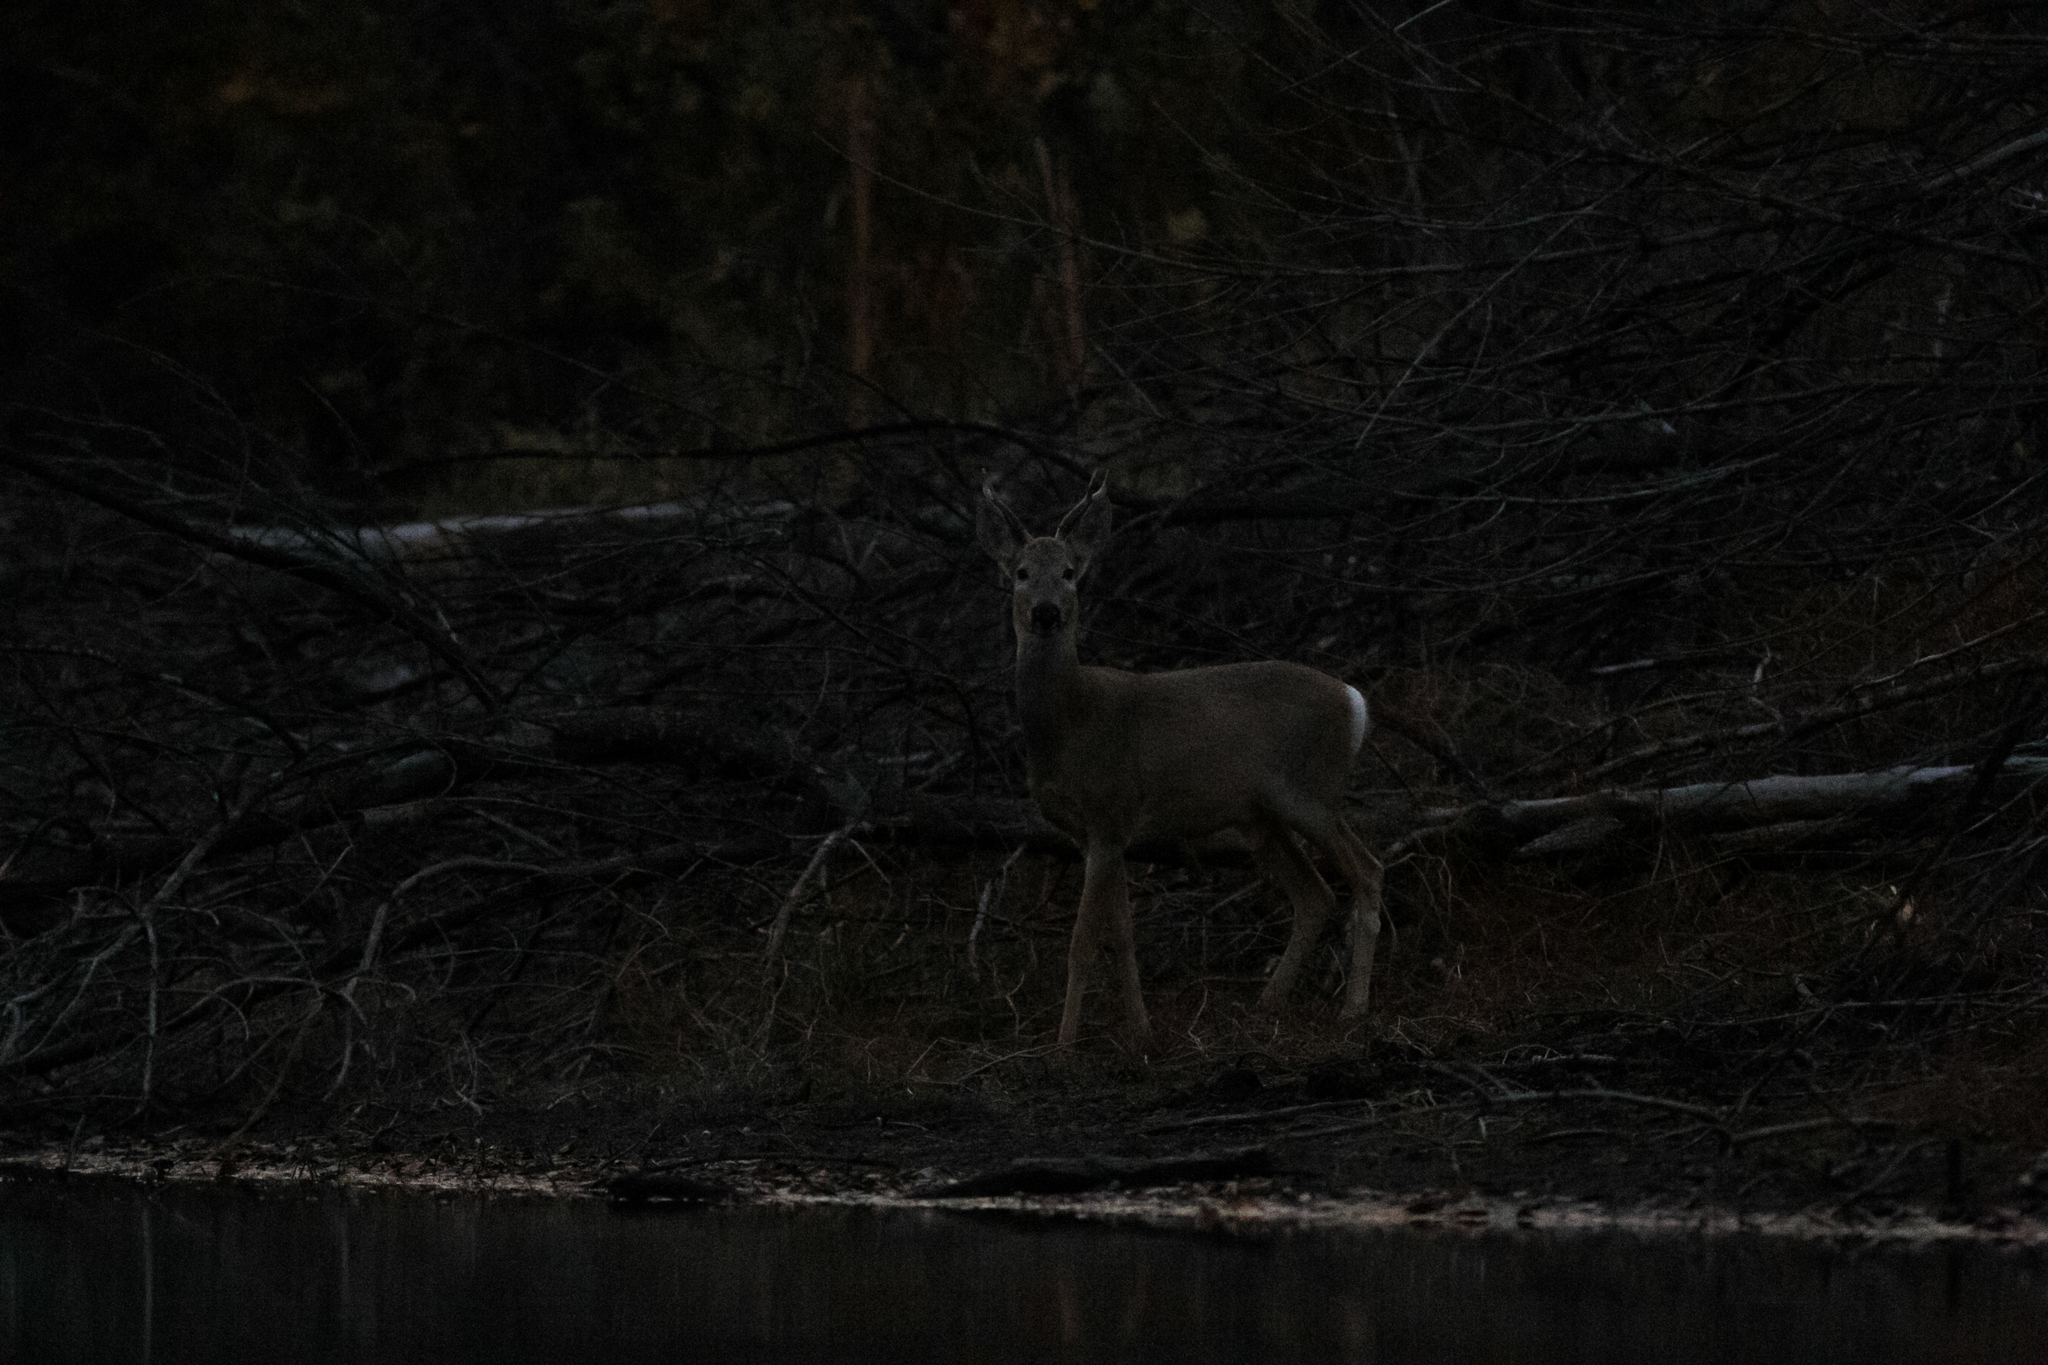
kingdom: Animalia
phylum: Chordata
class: Mammalia
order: Artiodactyla
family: Cervidae
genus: Capreolus
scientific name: Capreolus pygargus
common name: Siberian roe
